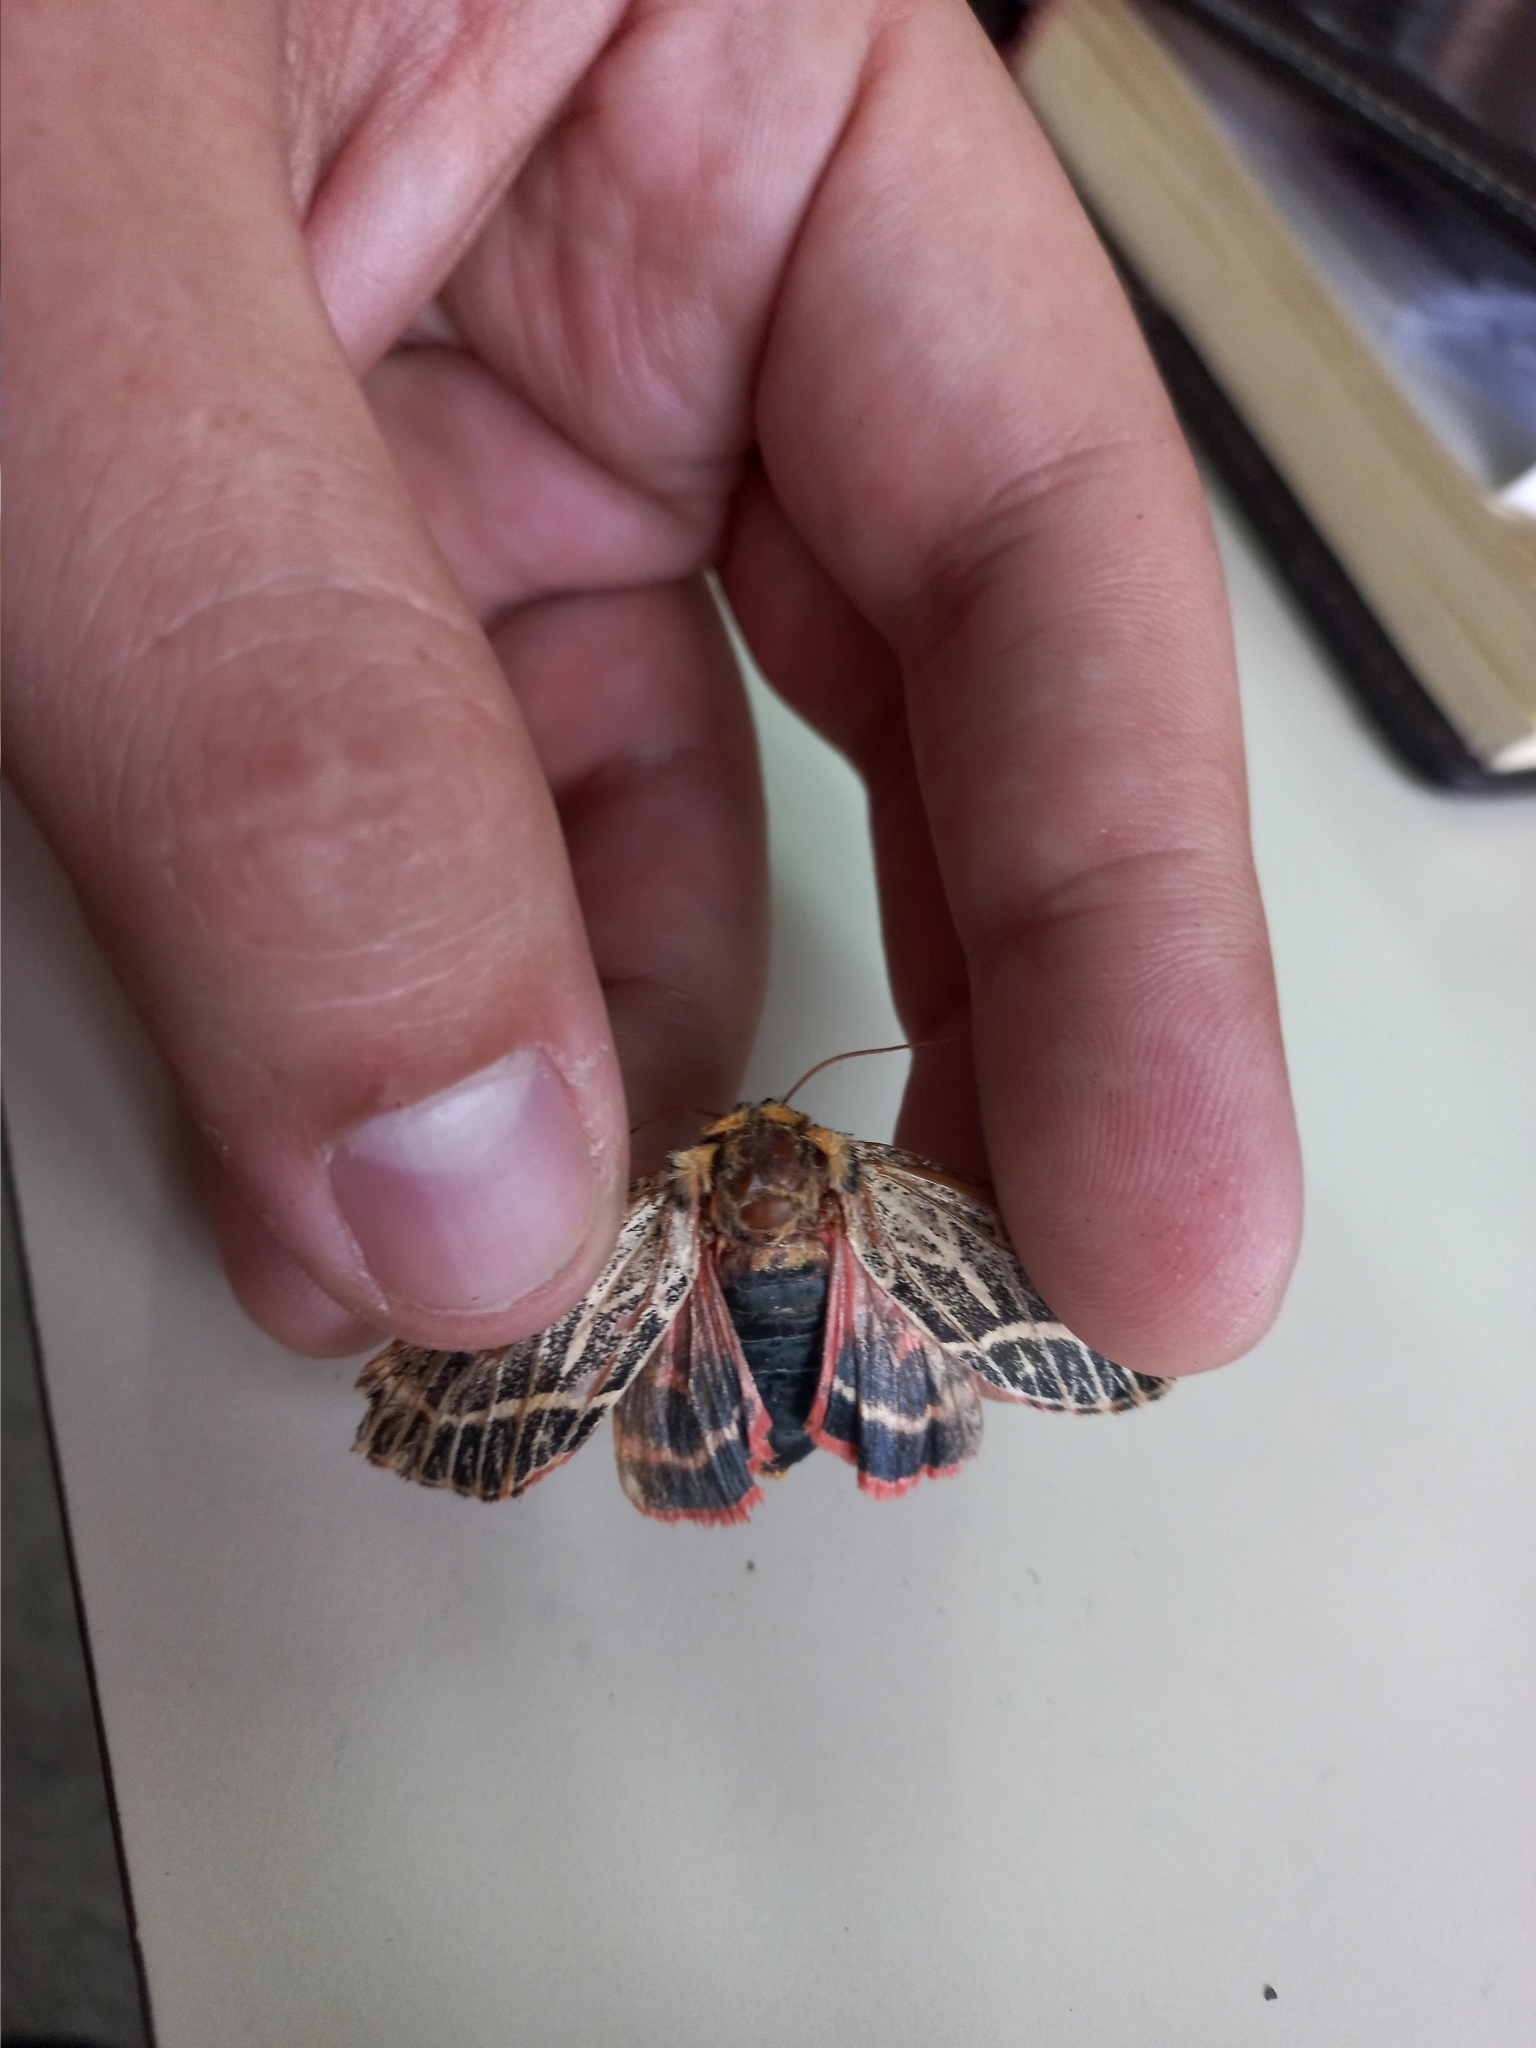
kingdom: Animalia
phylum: Arthropoda
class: Insecta
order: Lepidoptera
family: Noctuidae
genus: Chlanidophora
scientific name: Chlanidophora
